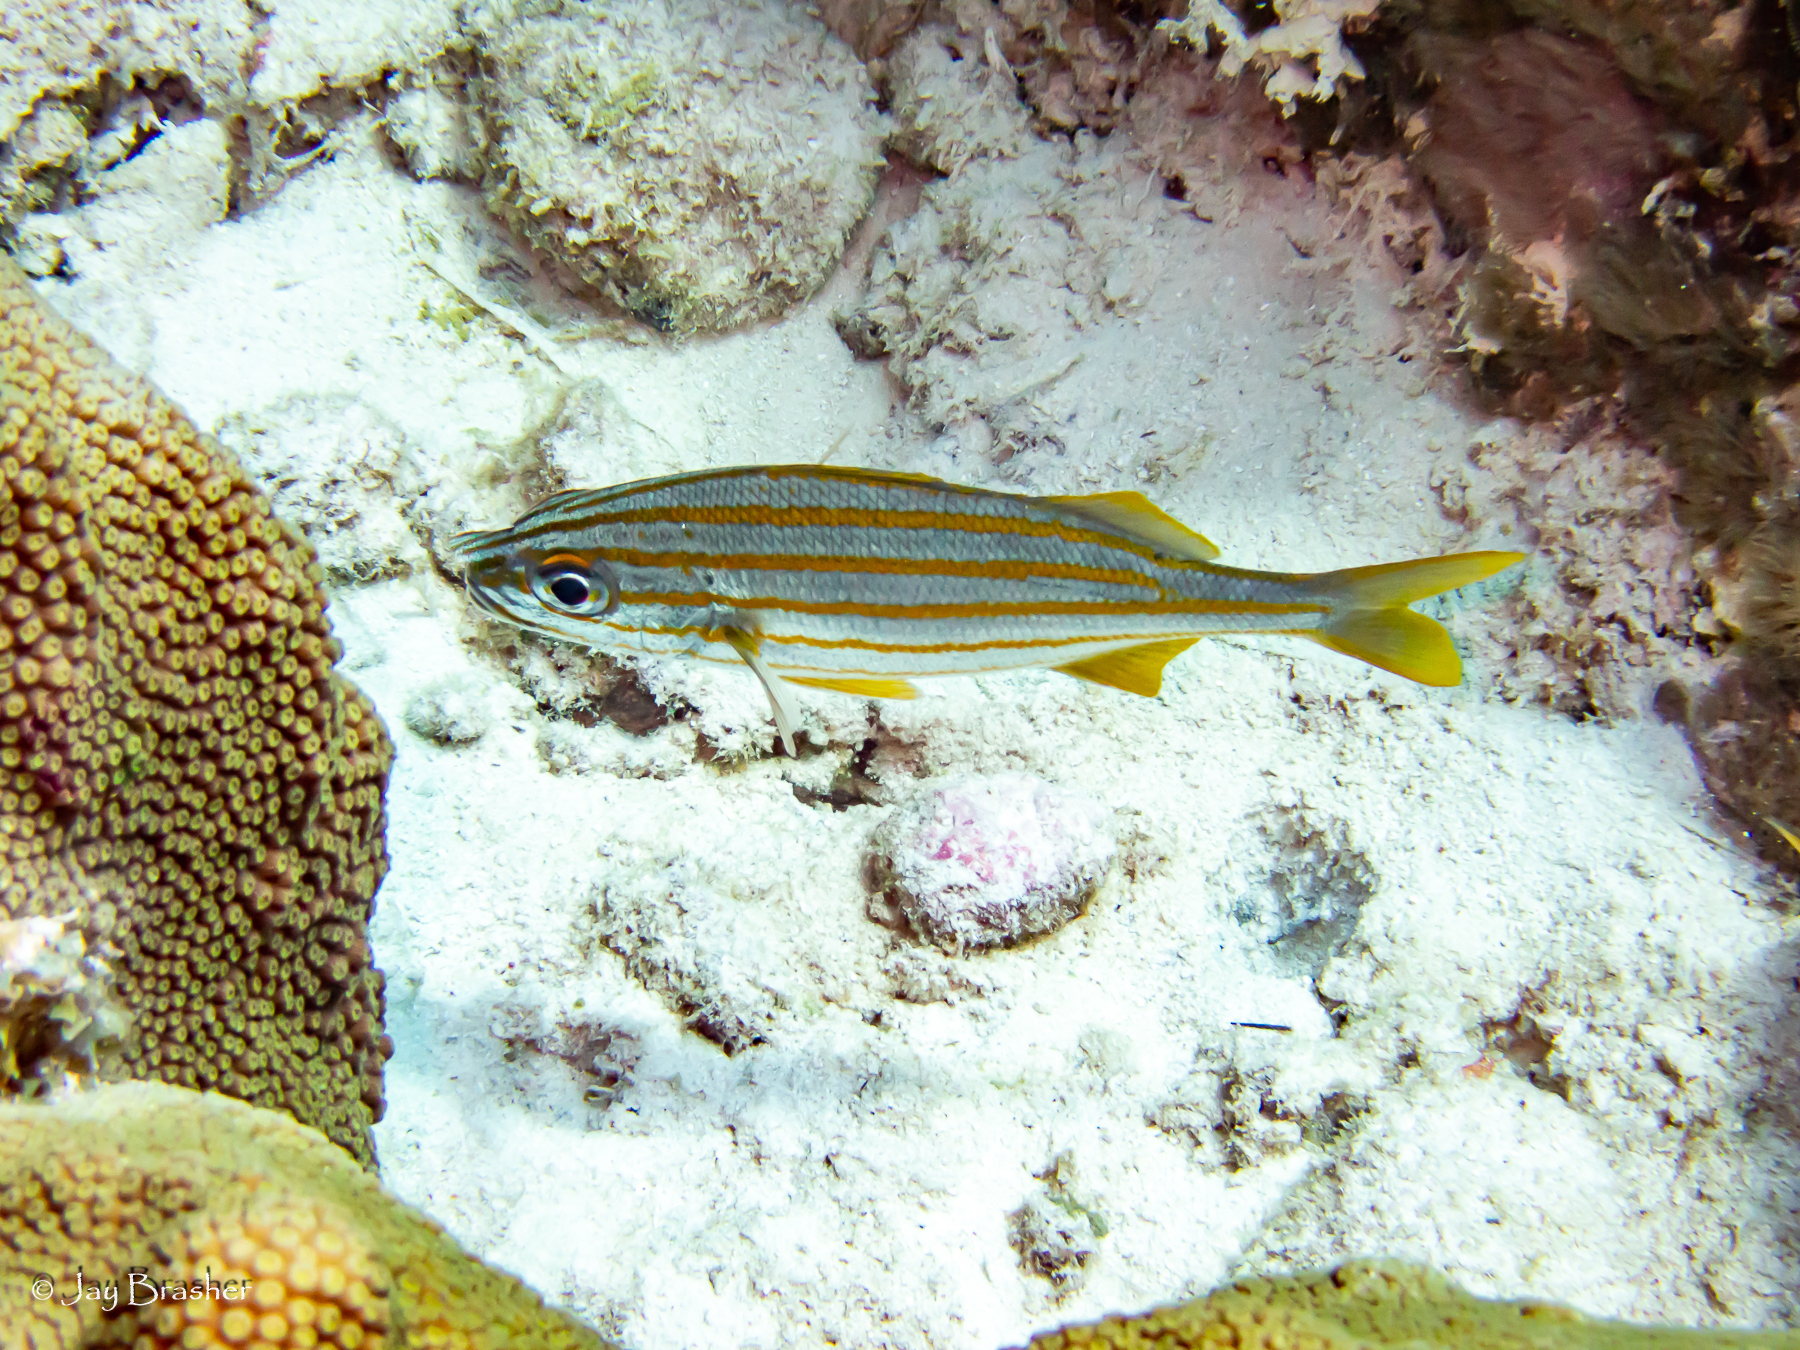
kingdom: Animalia
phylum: Chordata
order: Perciformes
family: Haemulidae
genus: Haemulon
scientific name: Haemulon chrysargyreum
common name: Smallmouth grunt
